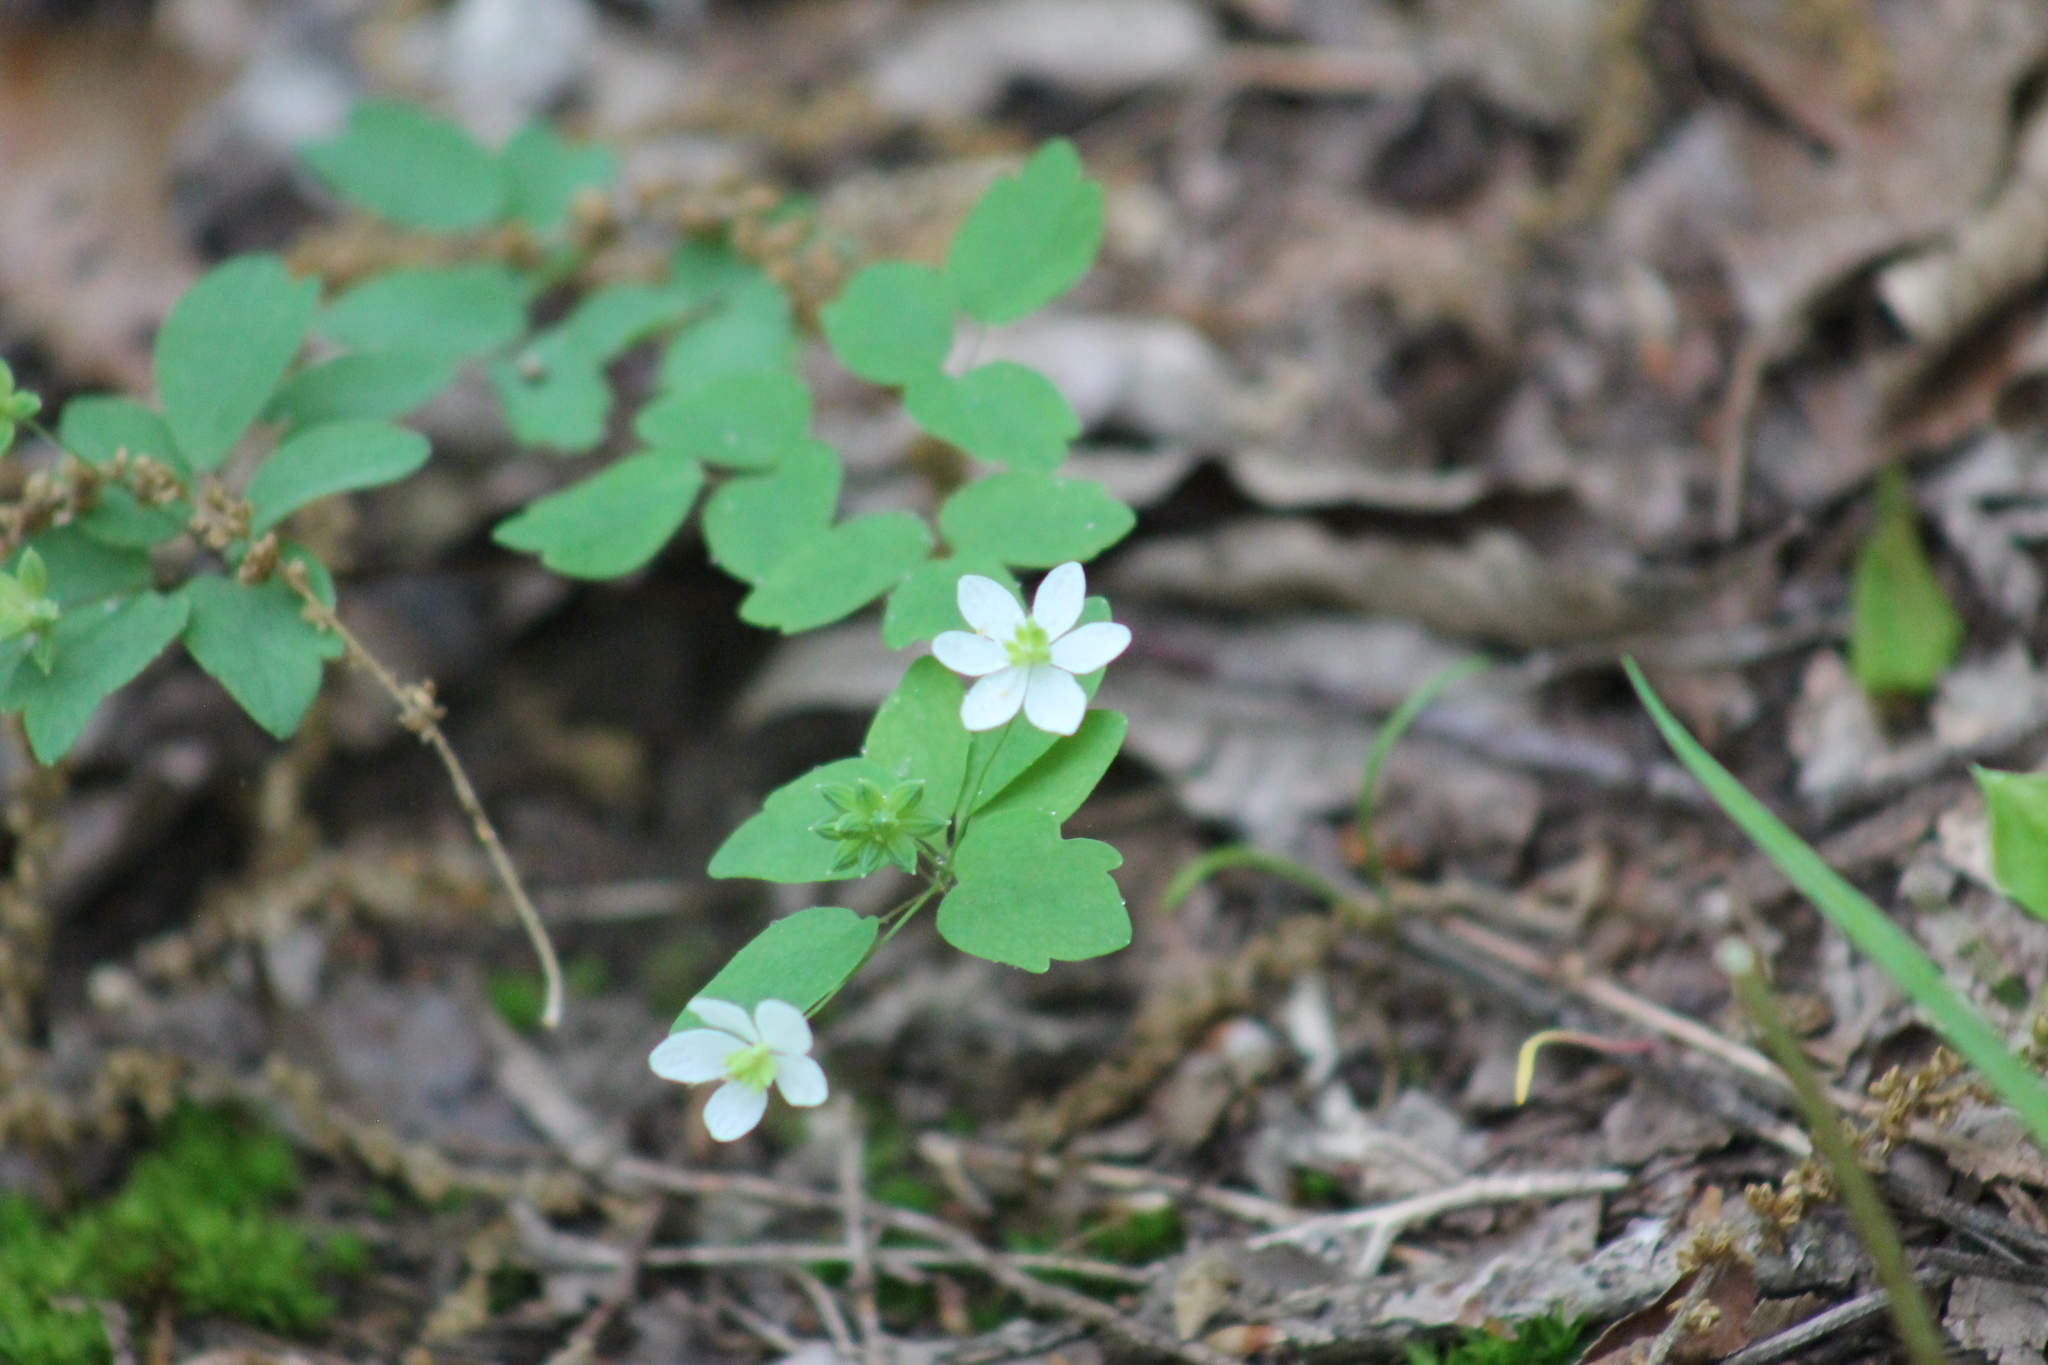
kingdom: Plantae
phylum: Tracheophyta
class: Magnoliopsida
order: Ranunculales
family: Ranunculaceae
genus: Thalictrum
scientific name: Thalictrum thalictroides
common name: Rue-anemone
